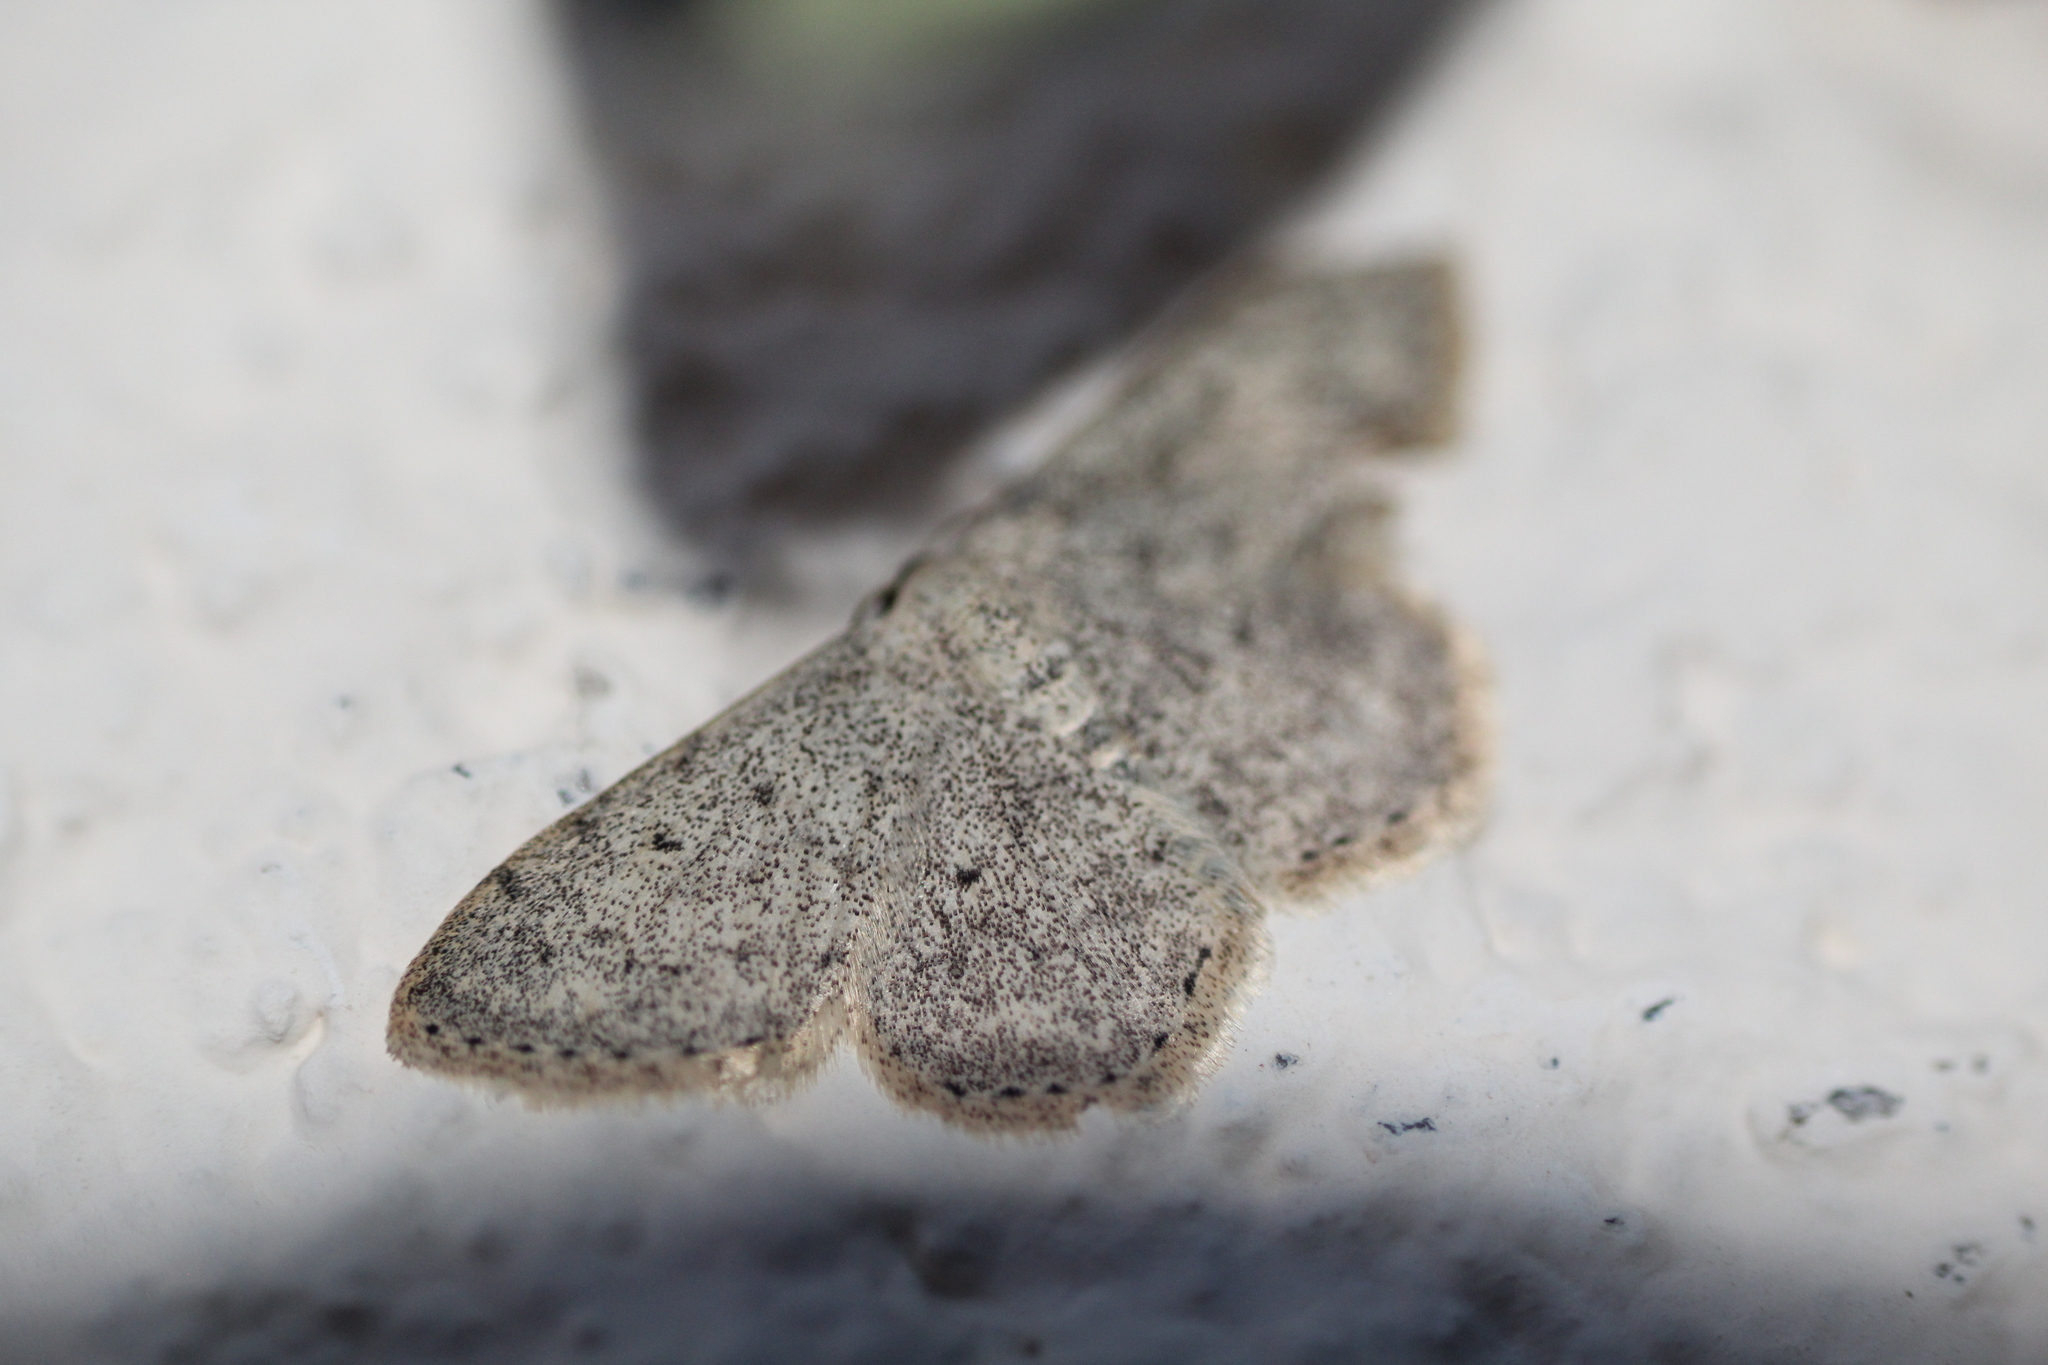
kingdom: Animalia
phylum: Arthropoda
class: Insecta
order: Lepidoptera
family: Geometridae
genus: Scopula
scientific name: Scopula marginepunctata
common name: Mullein wave
